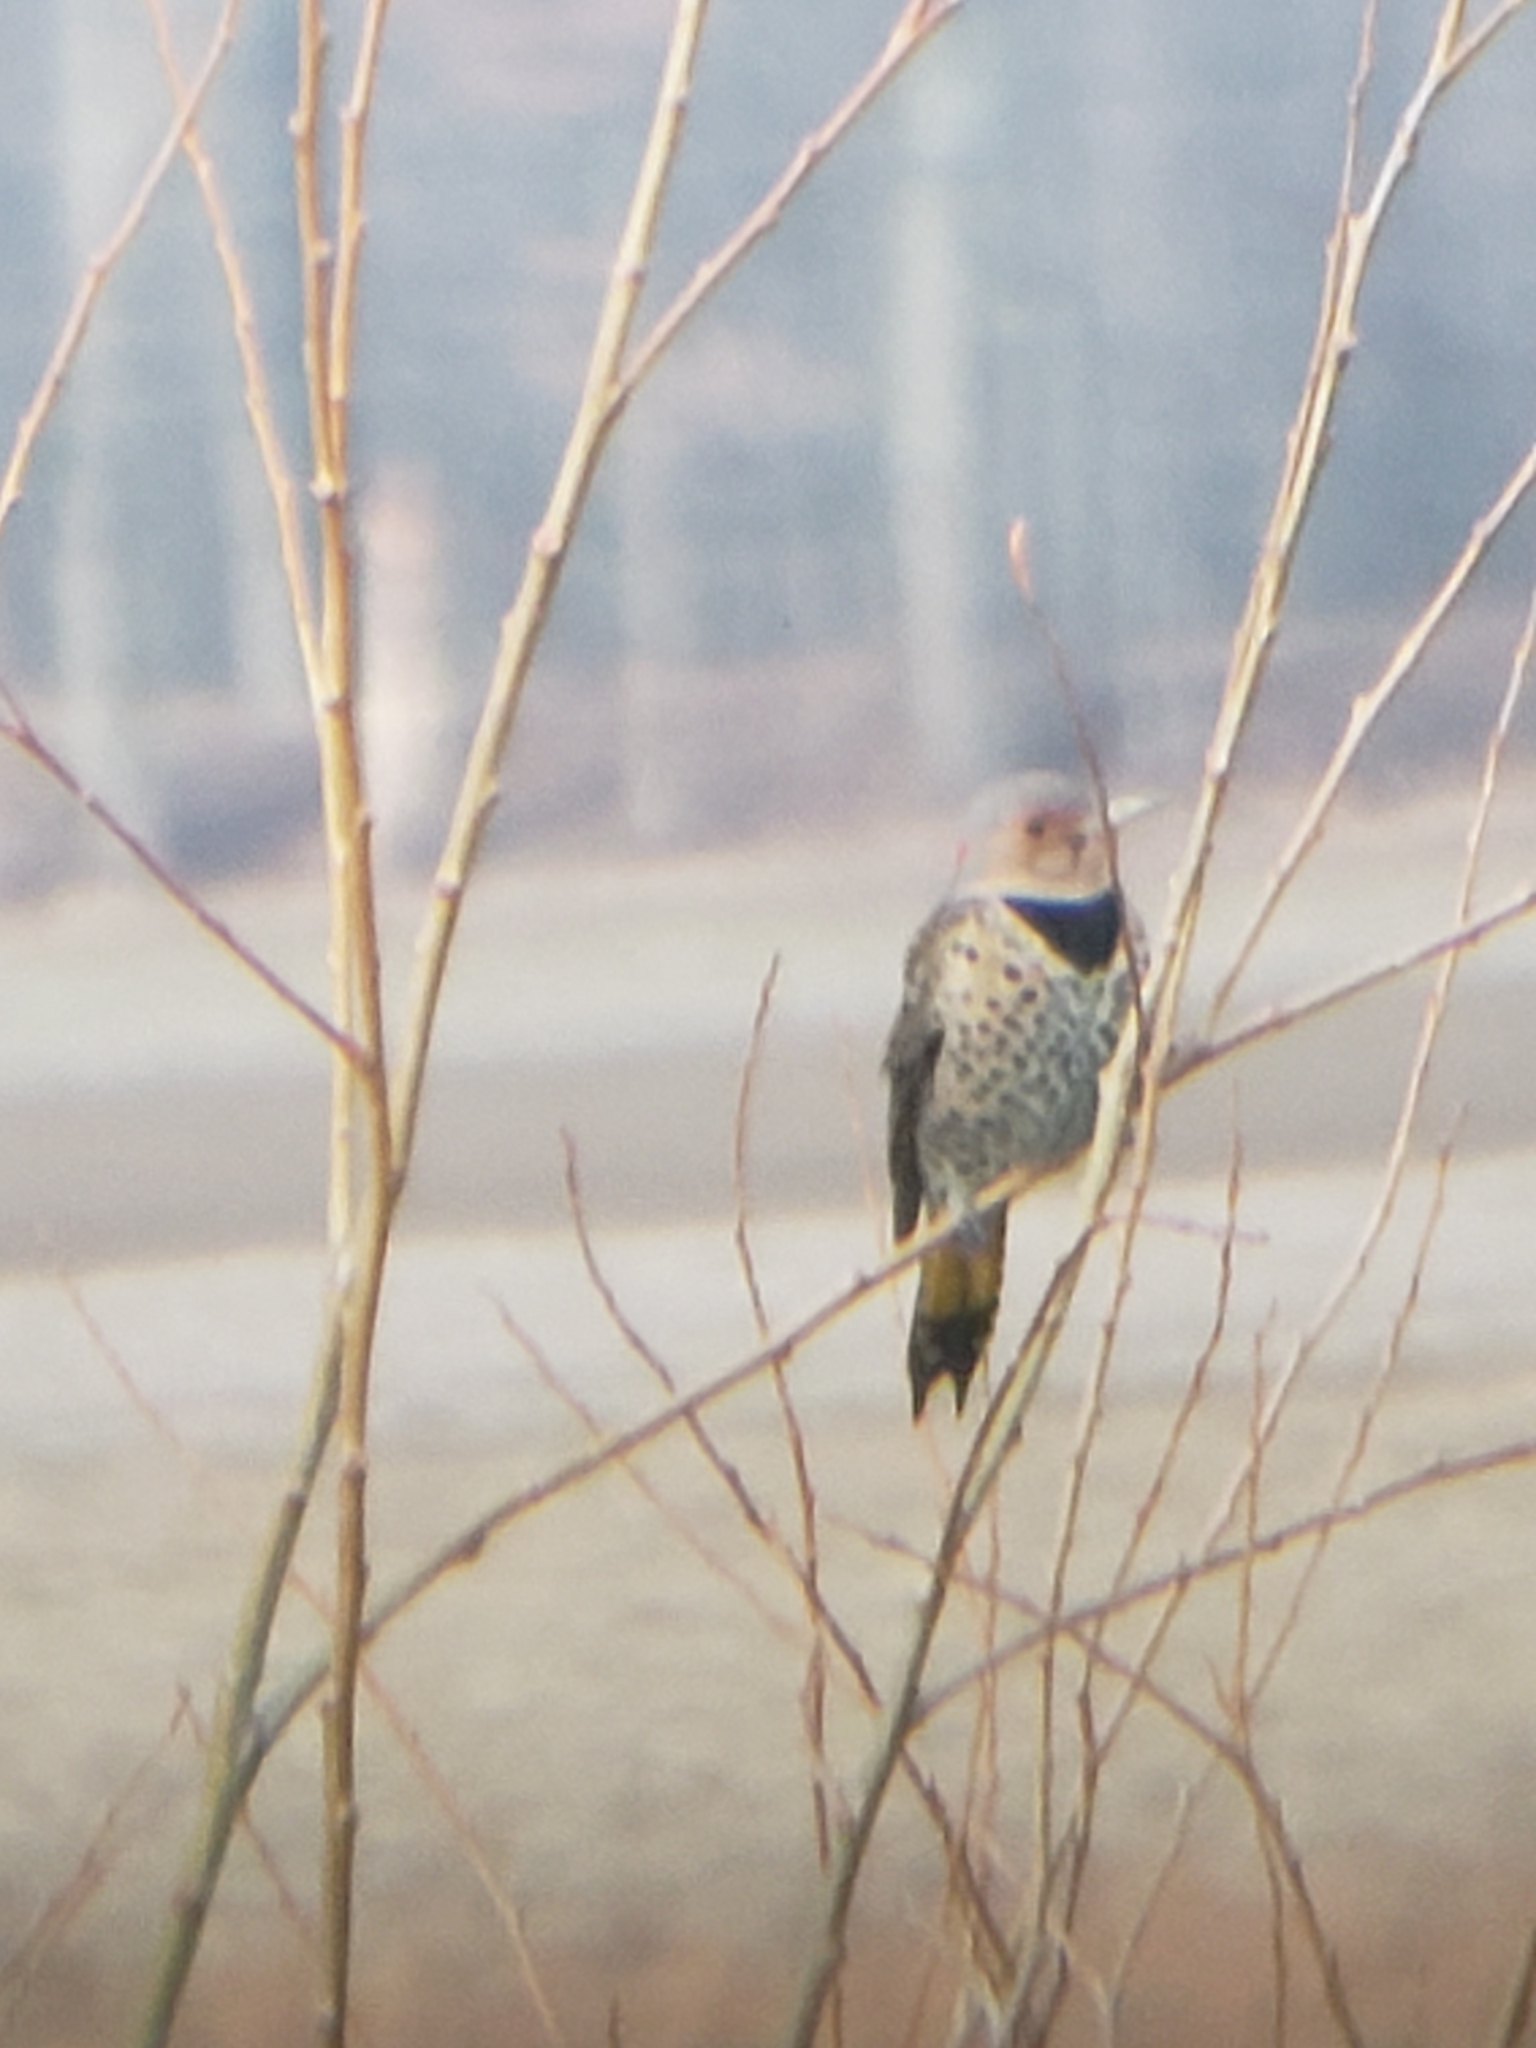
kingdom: Animalia
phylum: Chordata
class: Aves
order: Piciformes
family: Picidae
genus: Colaptes
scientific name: Colaptes auratus
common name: Northern flicker
